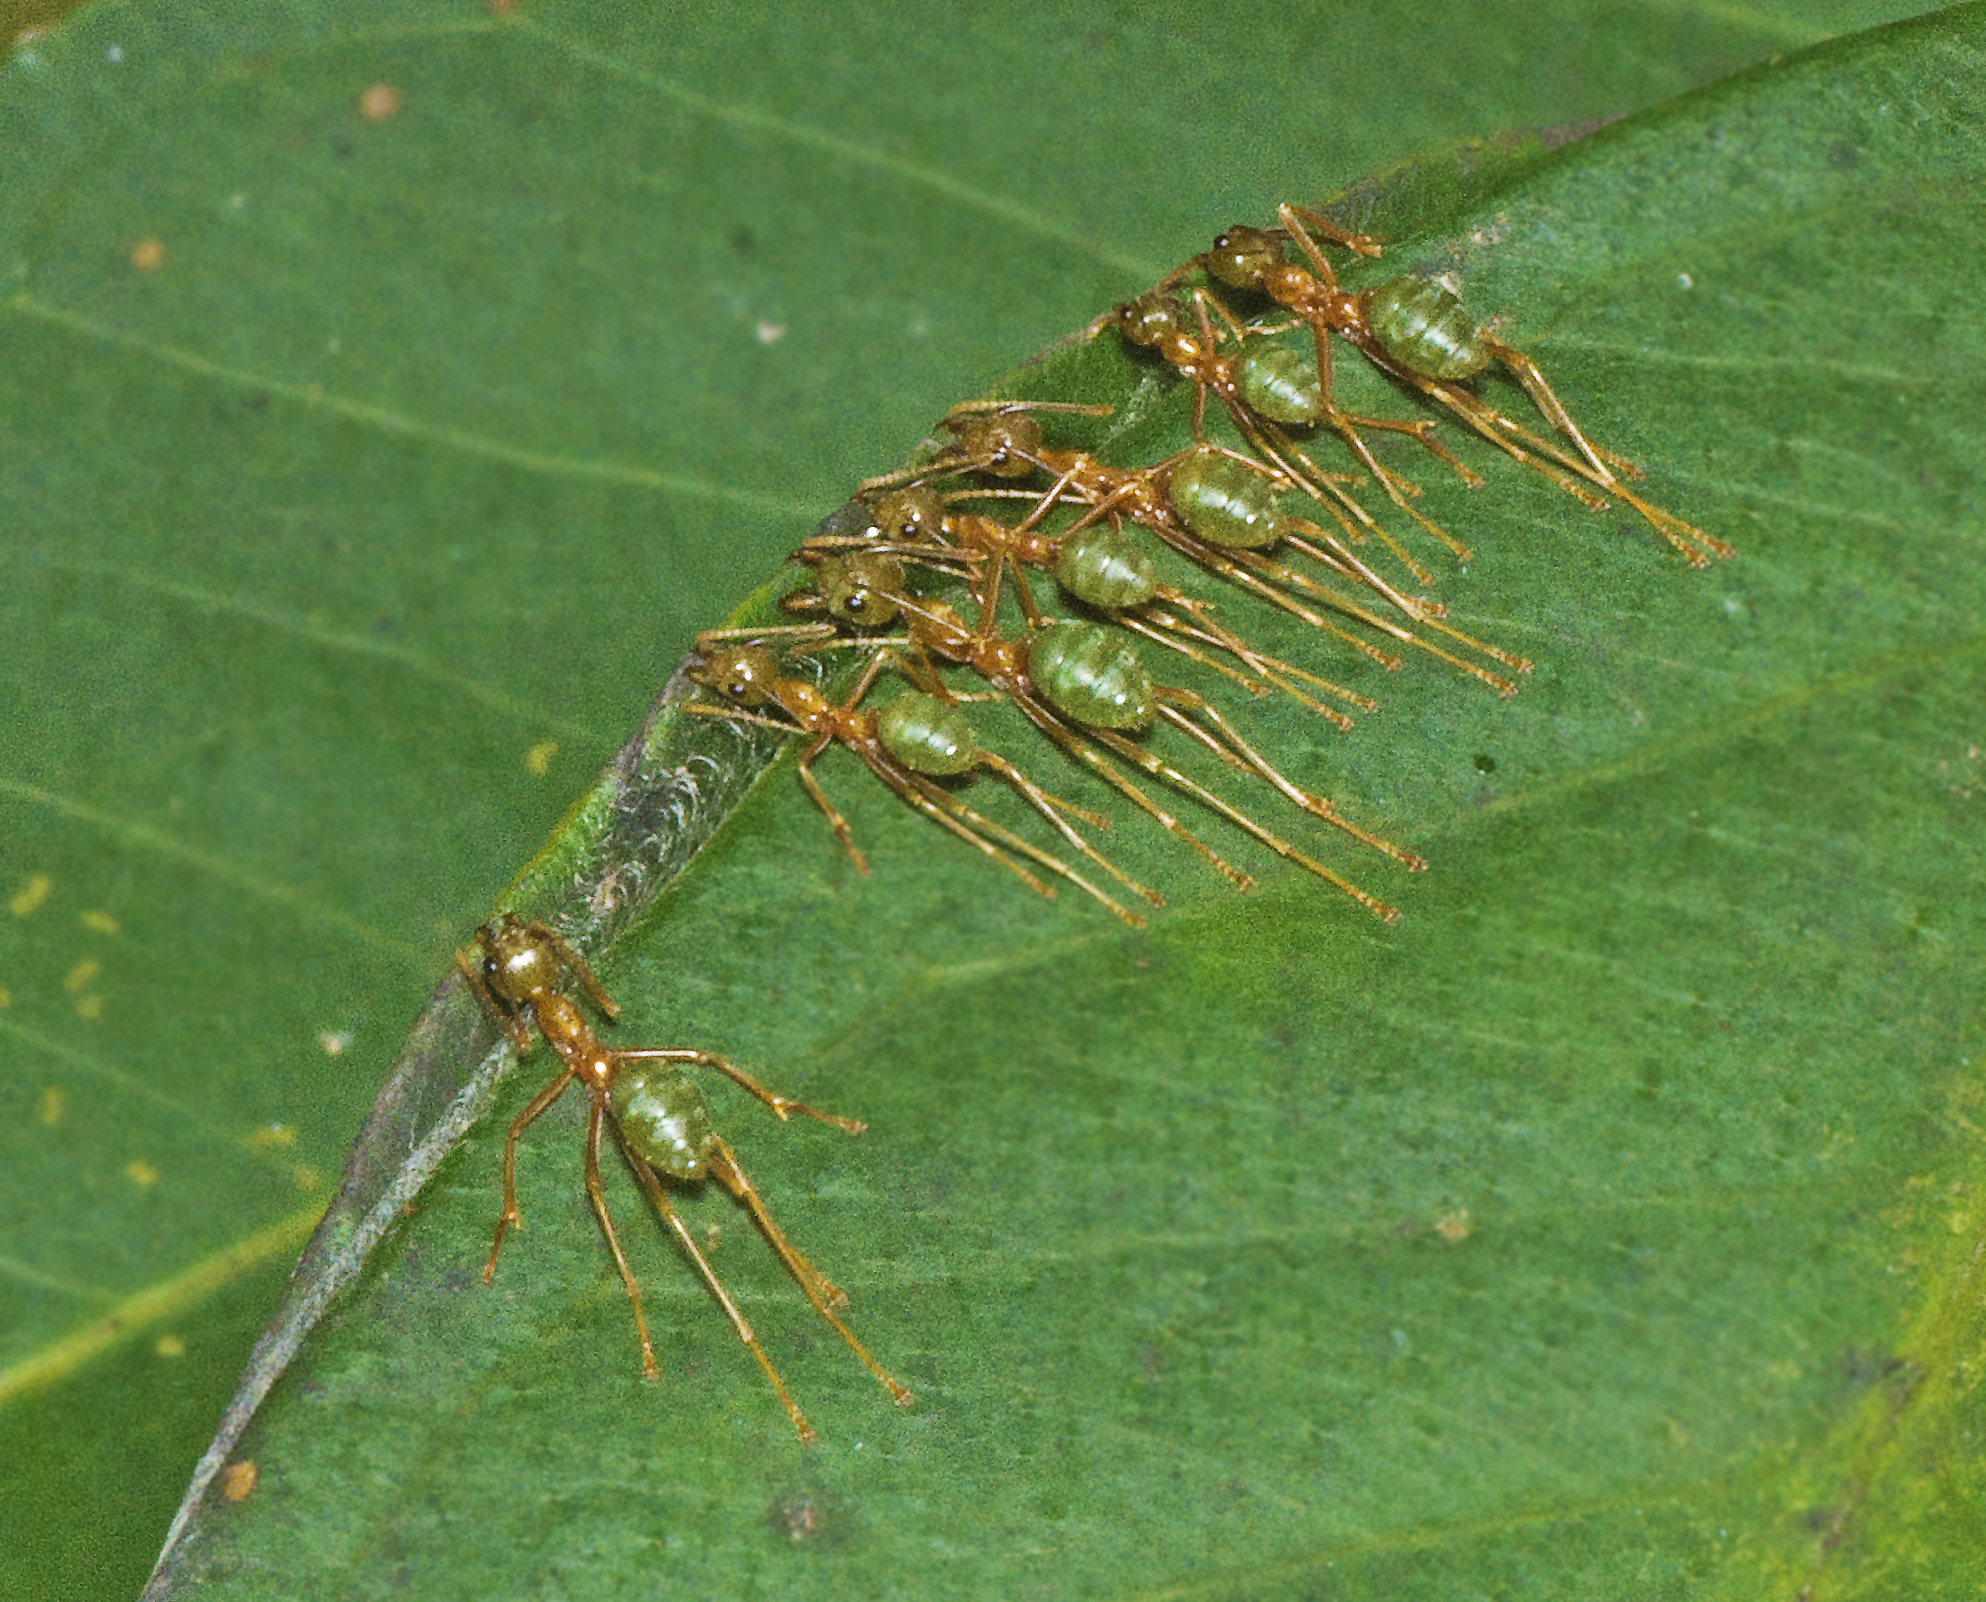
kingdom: Animalia
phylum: Arthropoda
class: Insecta
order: Hymenoptera
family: Formicidae
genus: Oecophylla
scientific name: Oecophylla smaragdina
